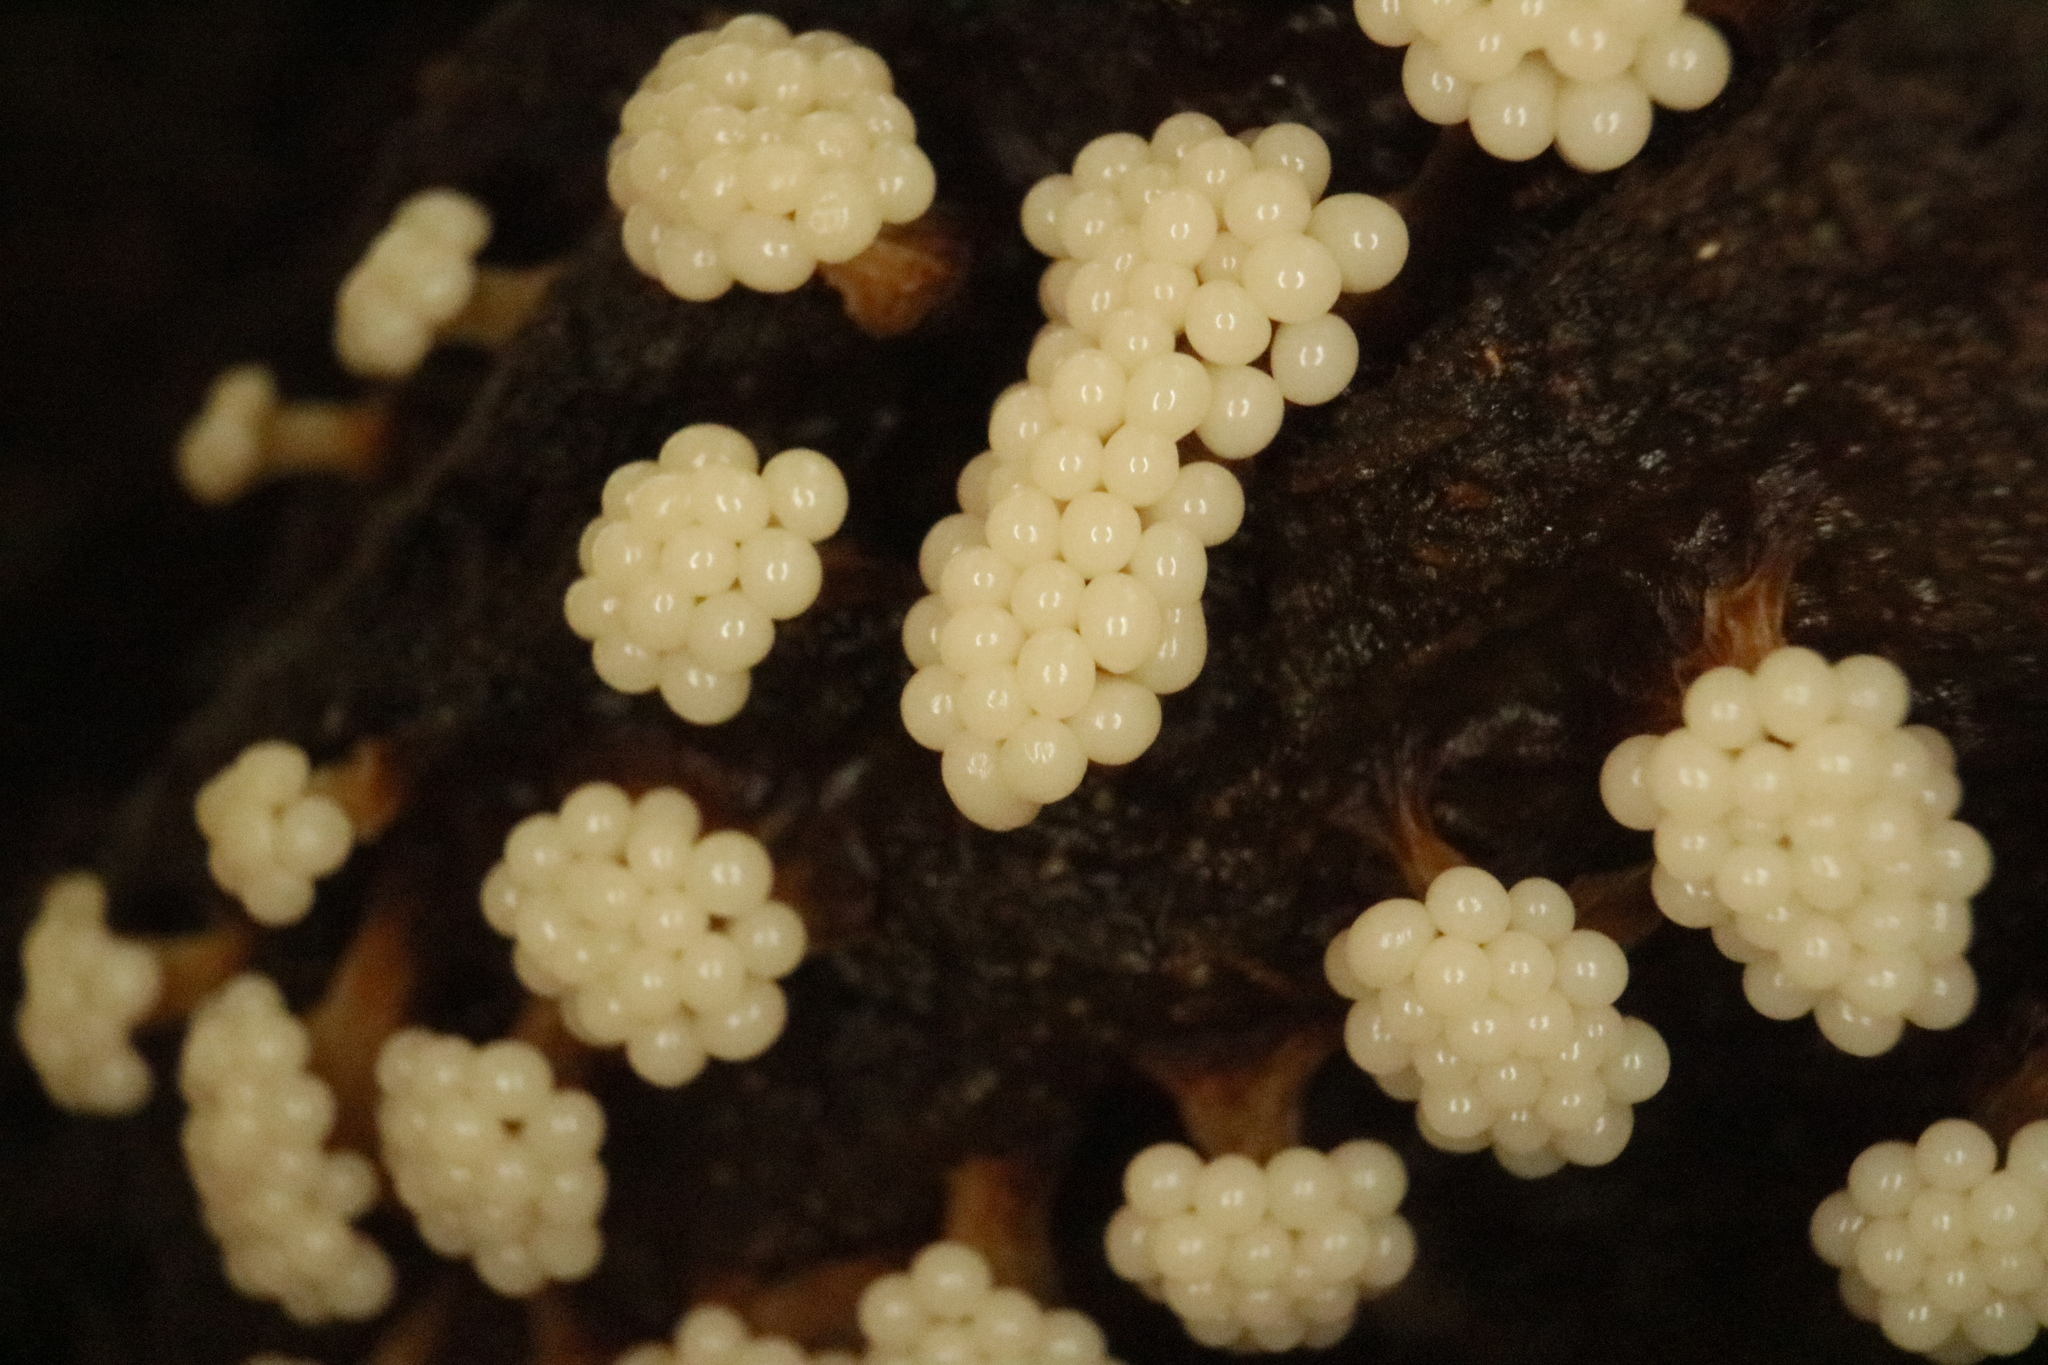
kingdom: Protozoa
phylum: Mycetozoa
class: Myxomycetes
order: Trichiales
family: Trichiaceae
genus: Oligonema
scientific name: Oligonema verrucosum
